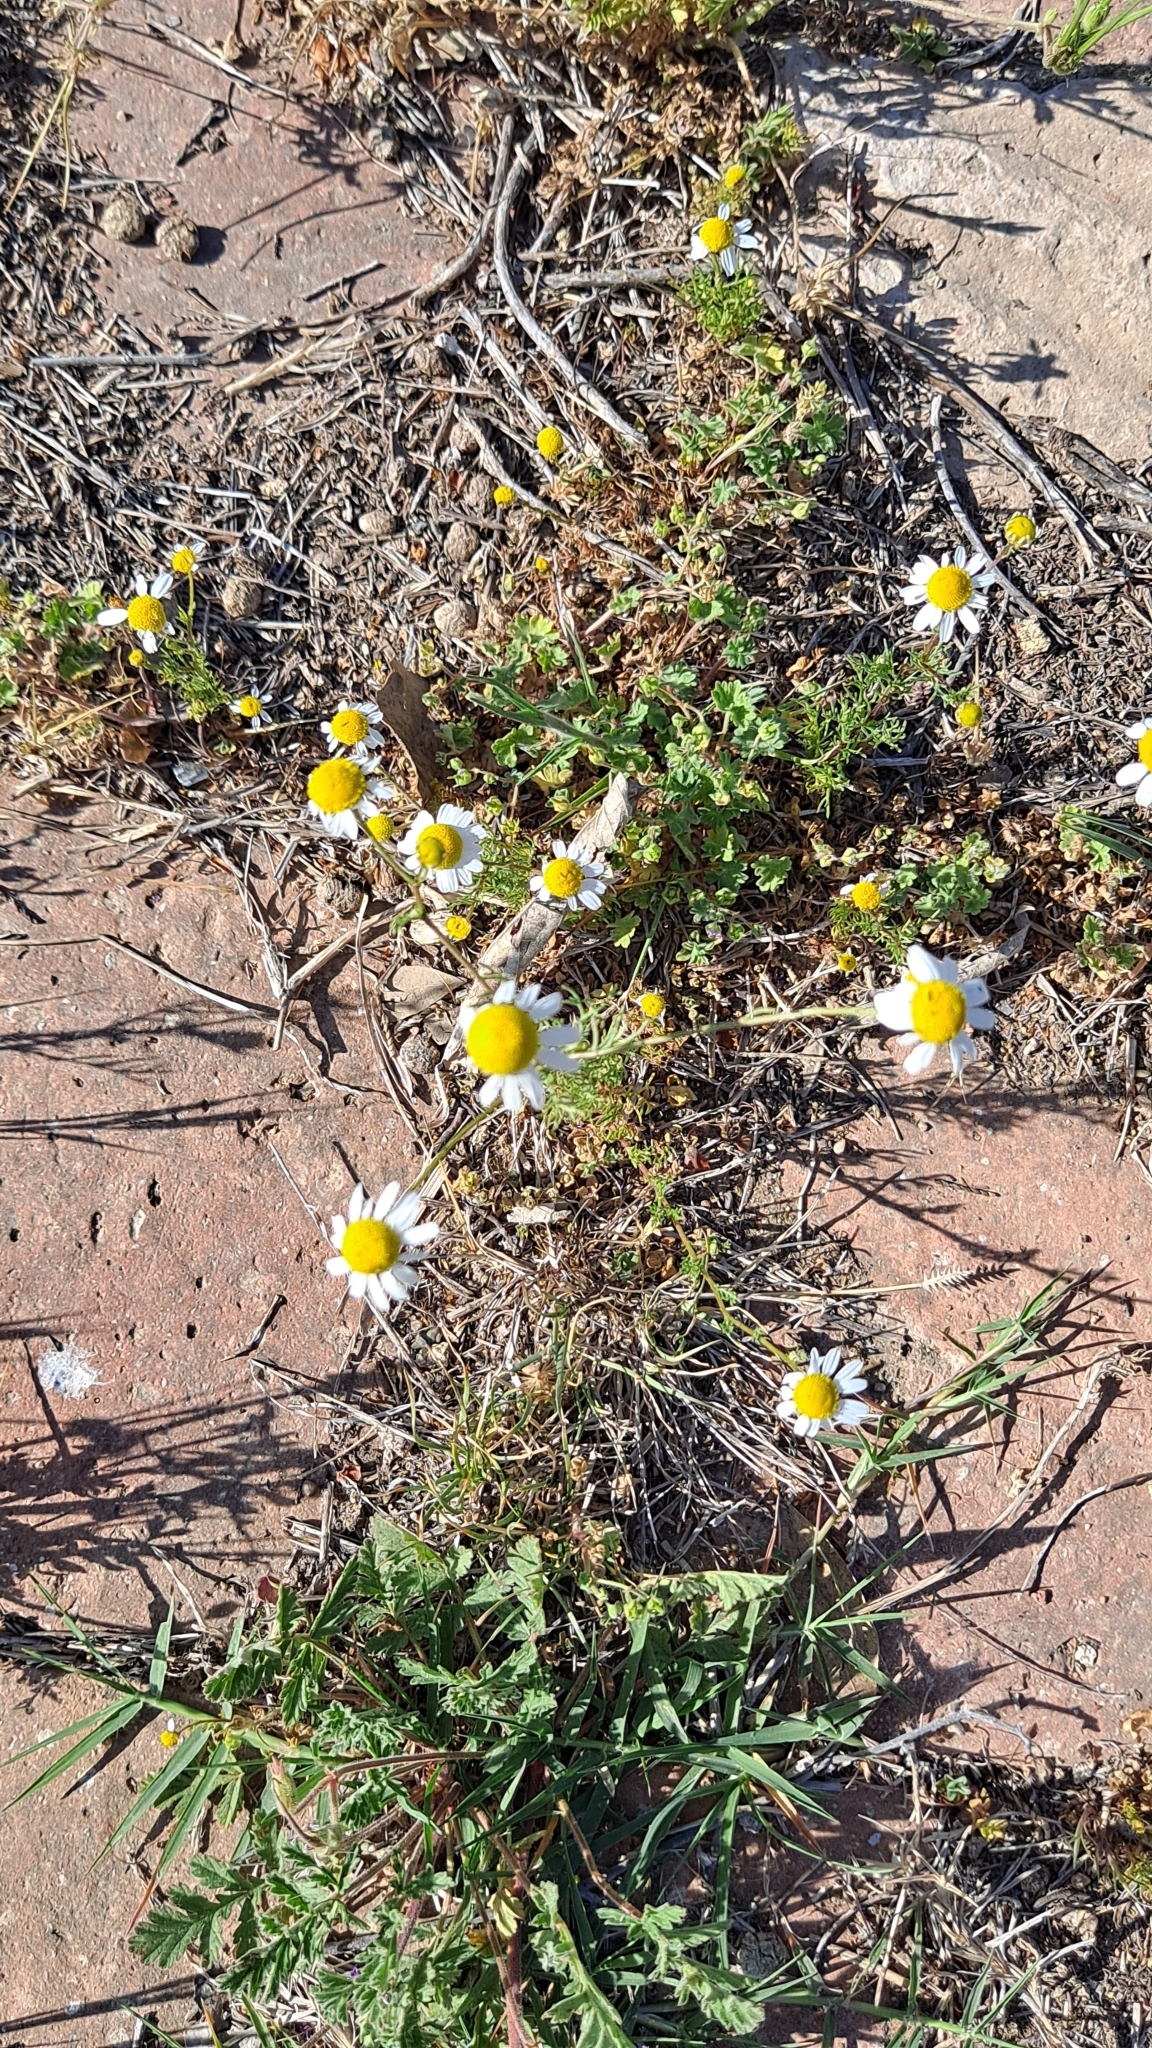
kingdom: Plantae
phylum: Tracheophyta
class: Magnoliopsida
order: Asterales
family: Asteraceae
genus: Matricaria
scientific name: Matricaria chamomilla
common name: Scented mayweed
